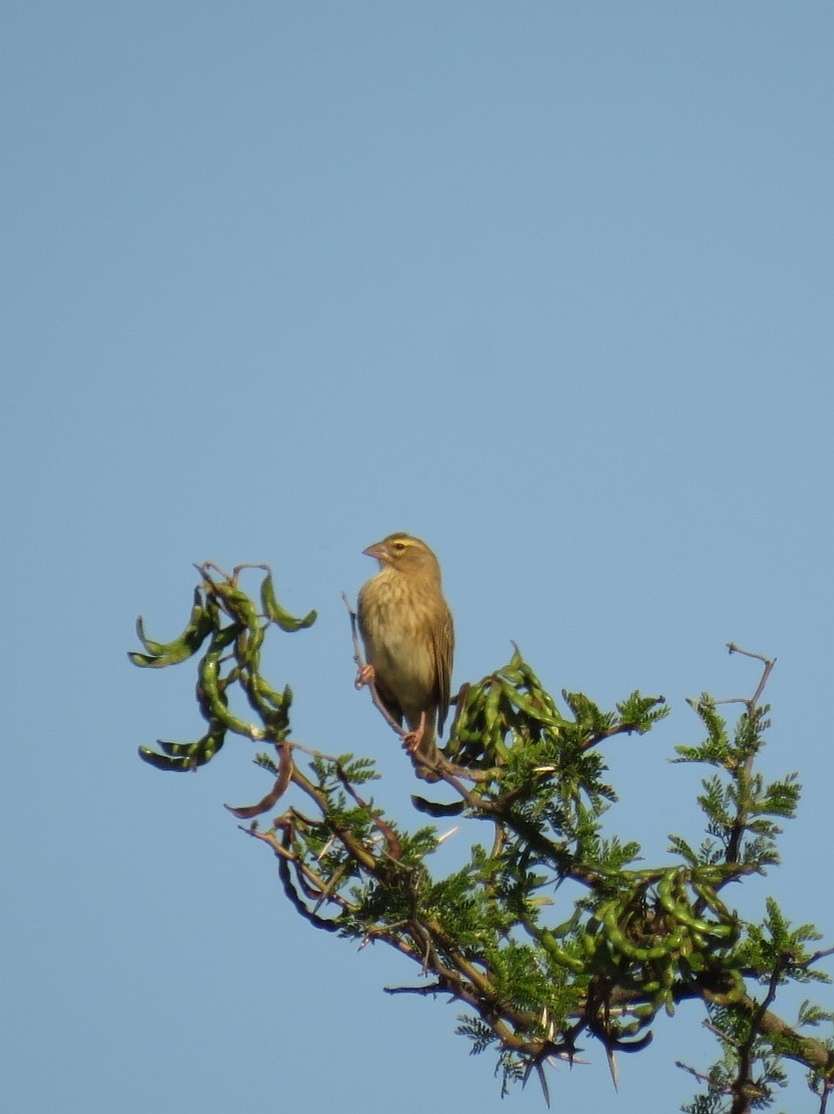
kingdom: Animalia
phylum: Chordata
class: Aves
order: Passeriformes
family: Ploceidae
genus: Euplectes
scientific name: Euplectes orix
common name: Southern red bishop
